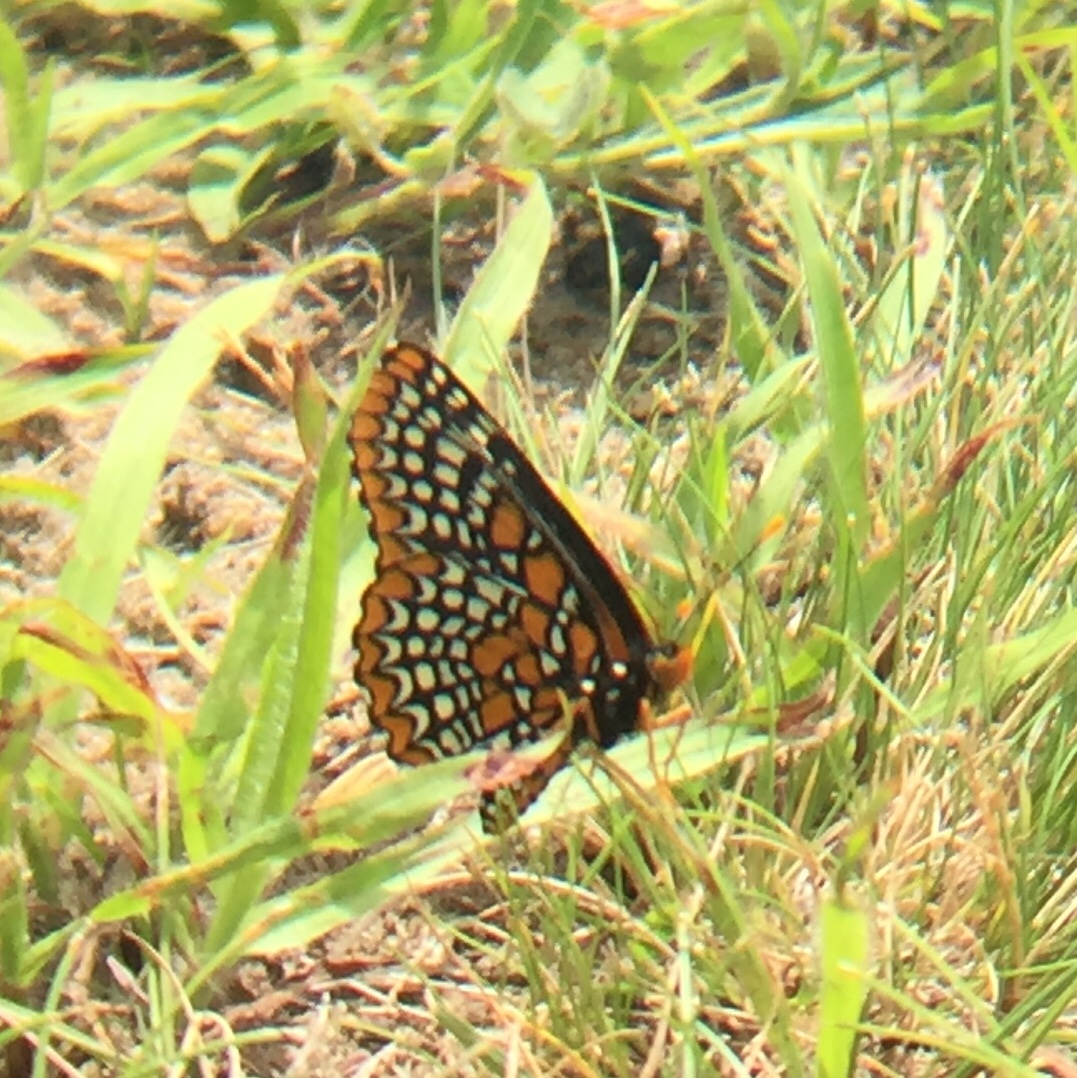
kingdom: Animalia
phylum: Arthropoda
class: Insecta
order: Lepidoptera
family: Nymphalidae
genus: Euphydryas
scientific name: Euphydryas phaeton
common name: Baltimore checkerspot
